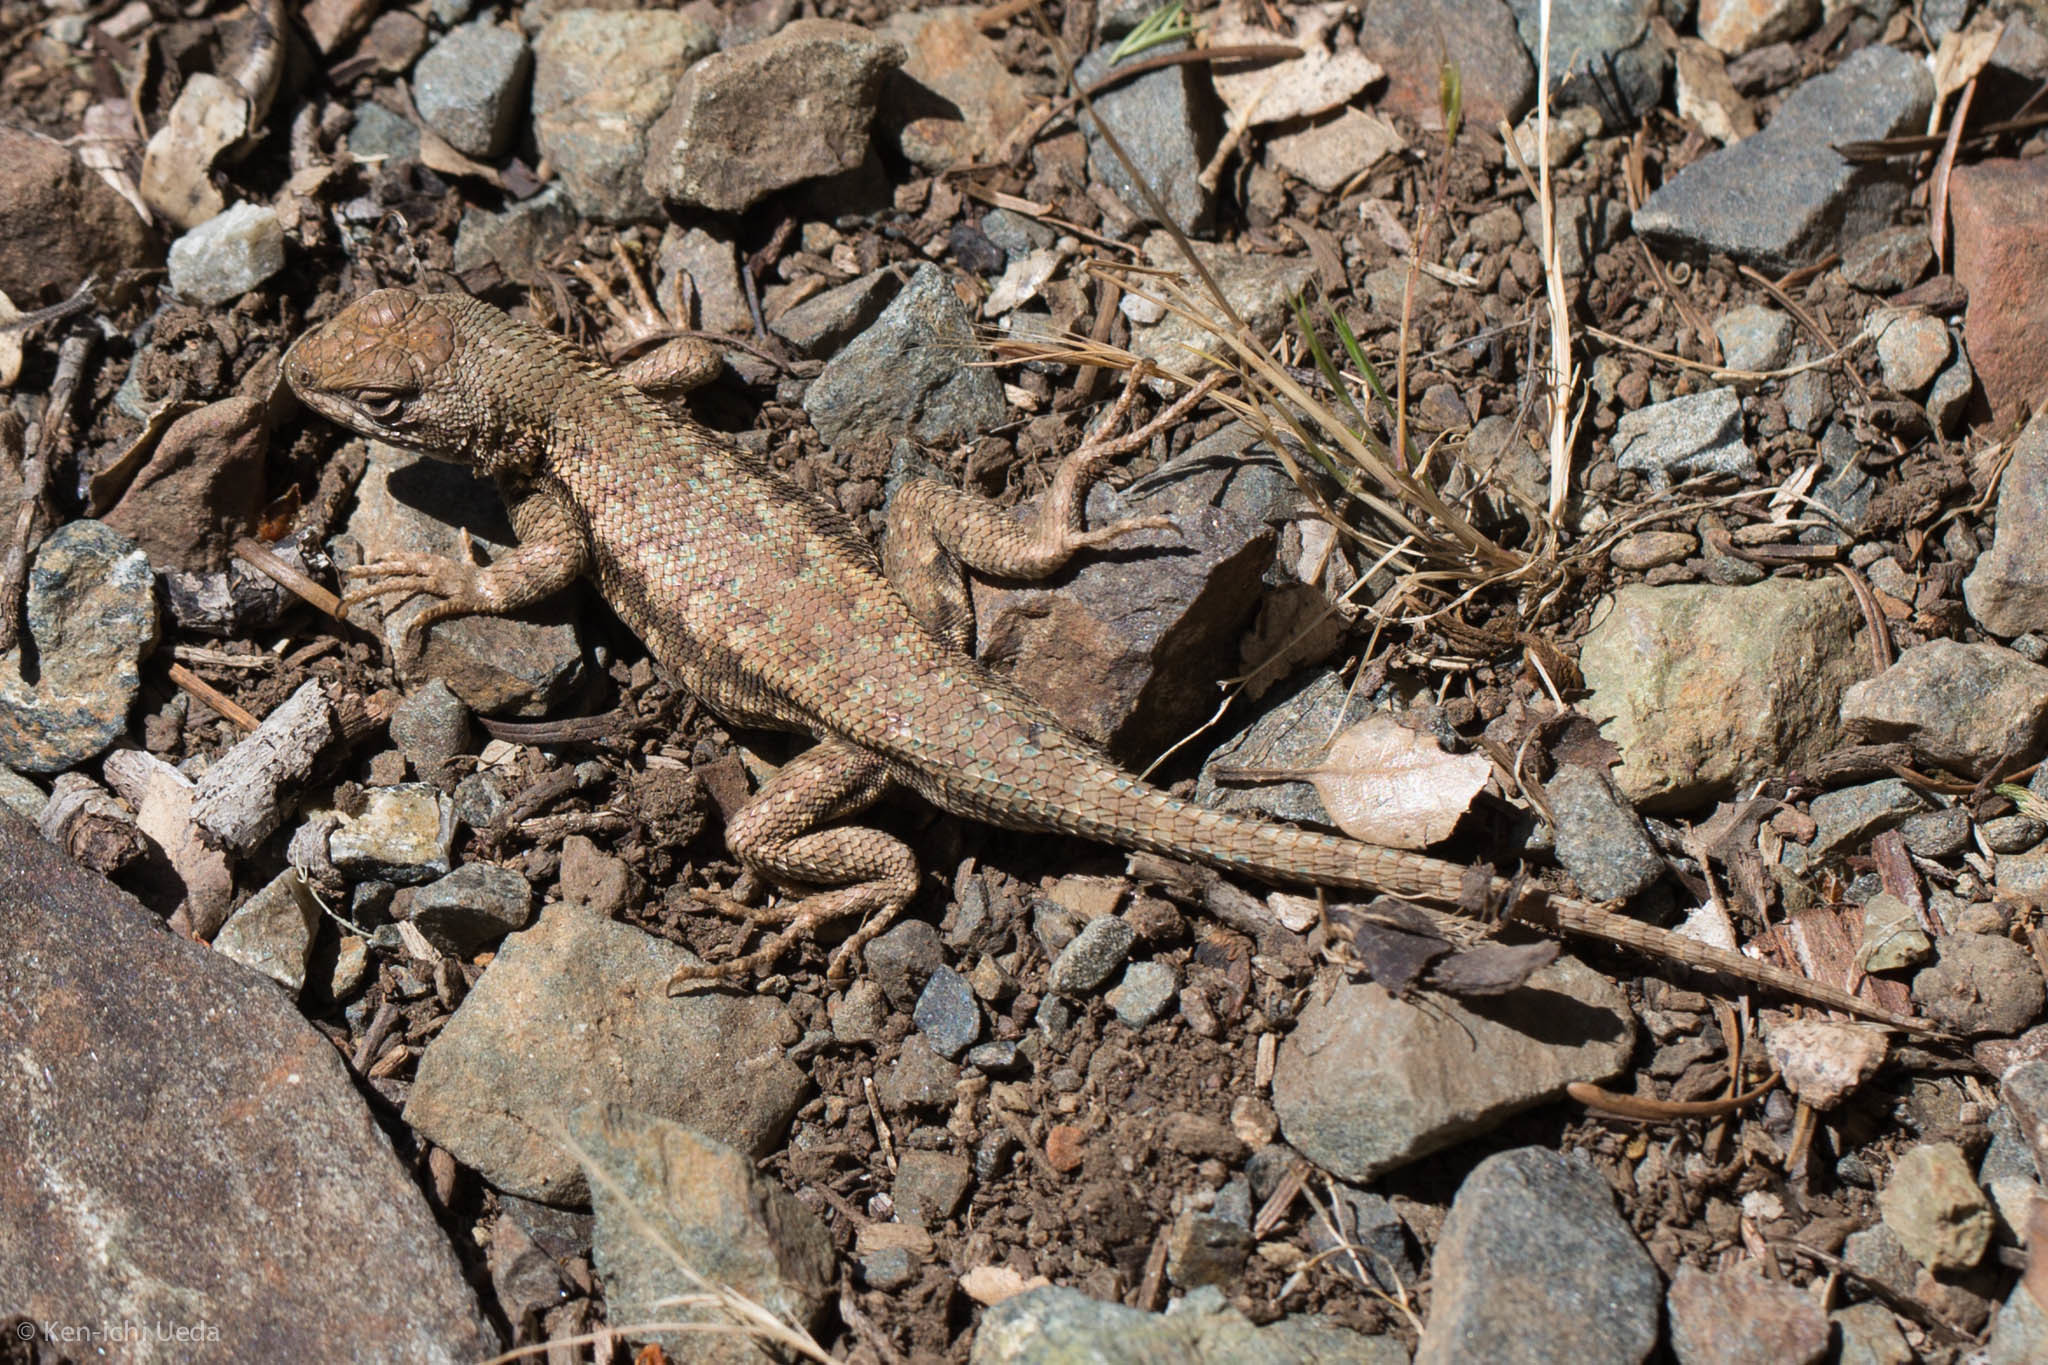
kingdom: Animalia
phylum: Chordata
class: Squamata
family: Phrynosomatidae
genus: Sceloporus
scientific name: Sceloporus graciosus
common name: Sagebrush lizard
